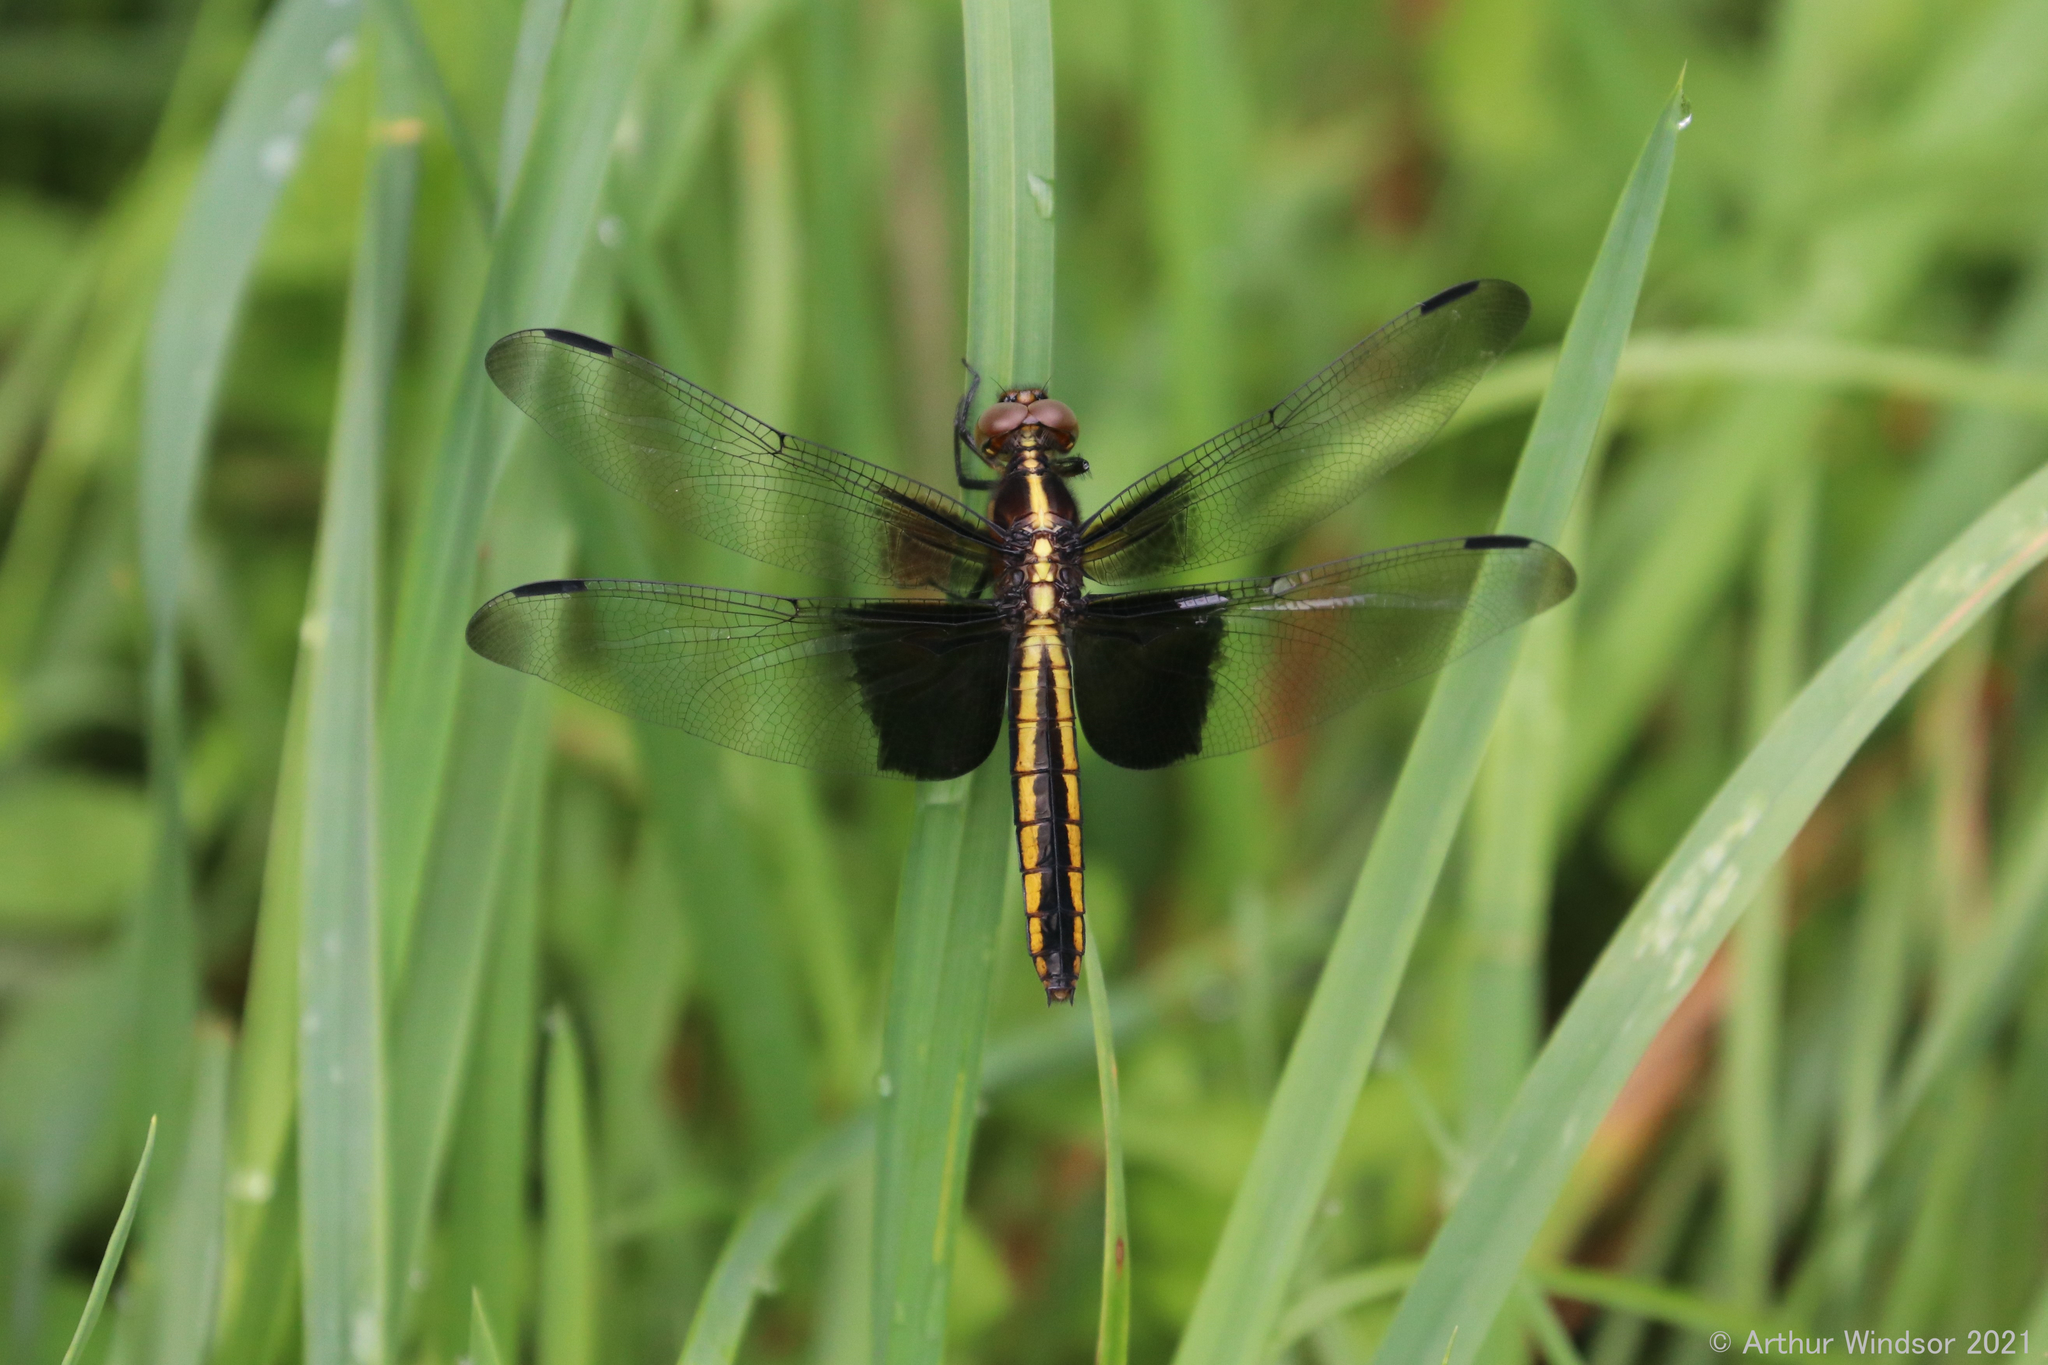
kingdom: Animalia
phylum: Arthropoda
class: Insecta
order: Odonata
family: Libellulidae
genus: Libellula
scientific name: Libellula luctuosa
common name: Widow skimmer
